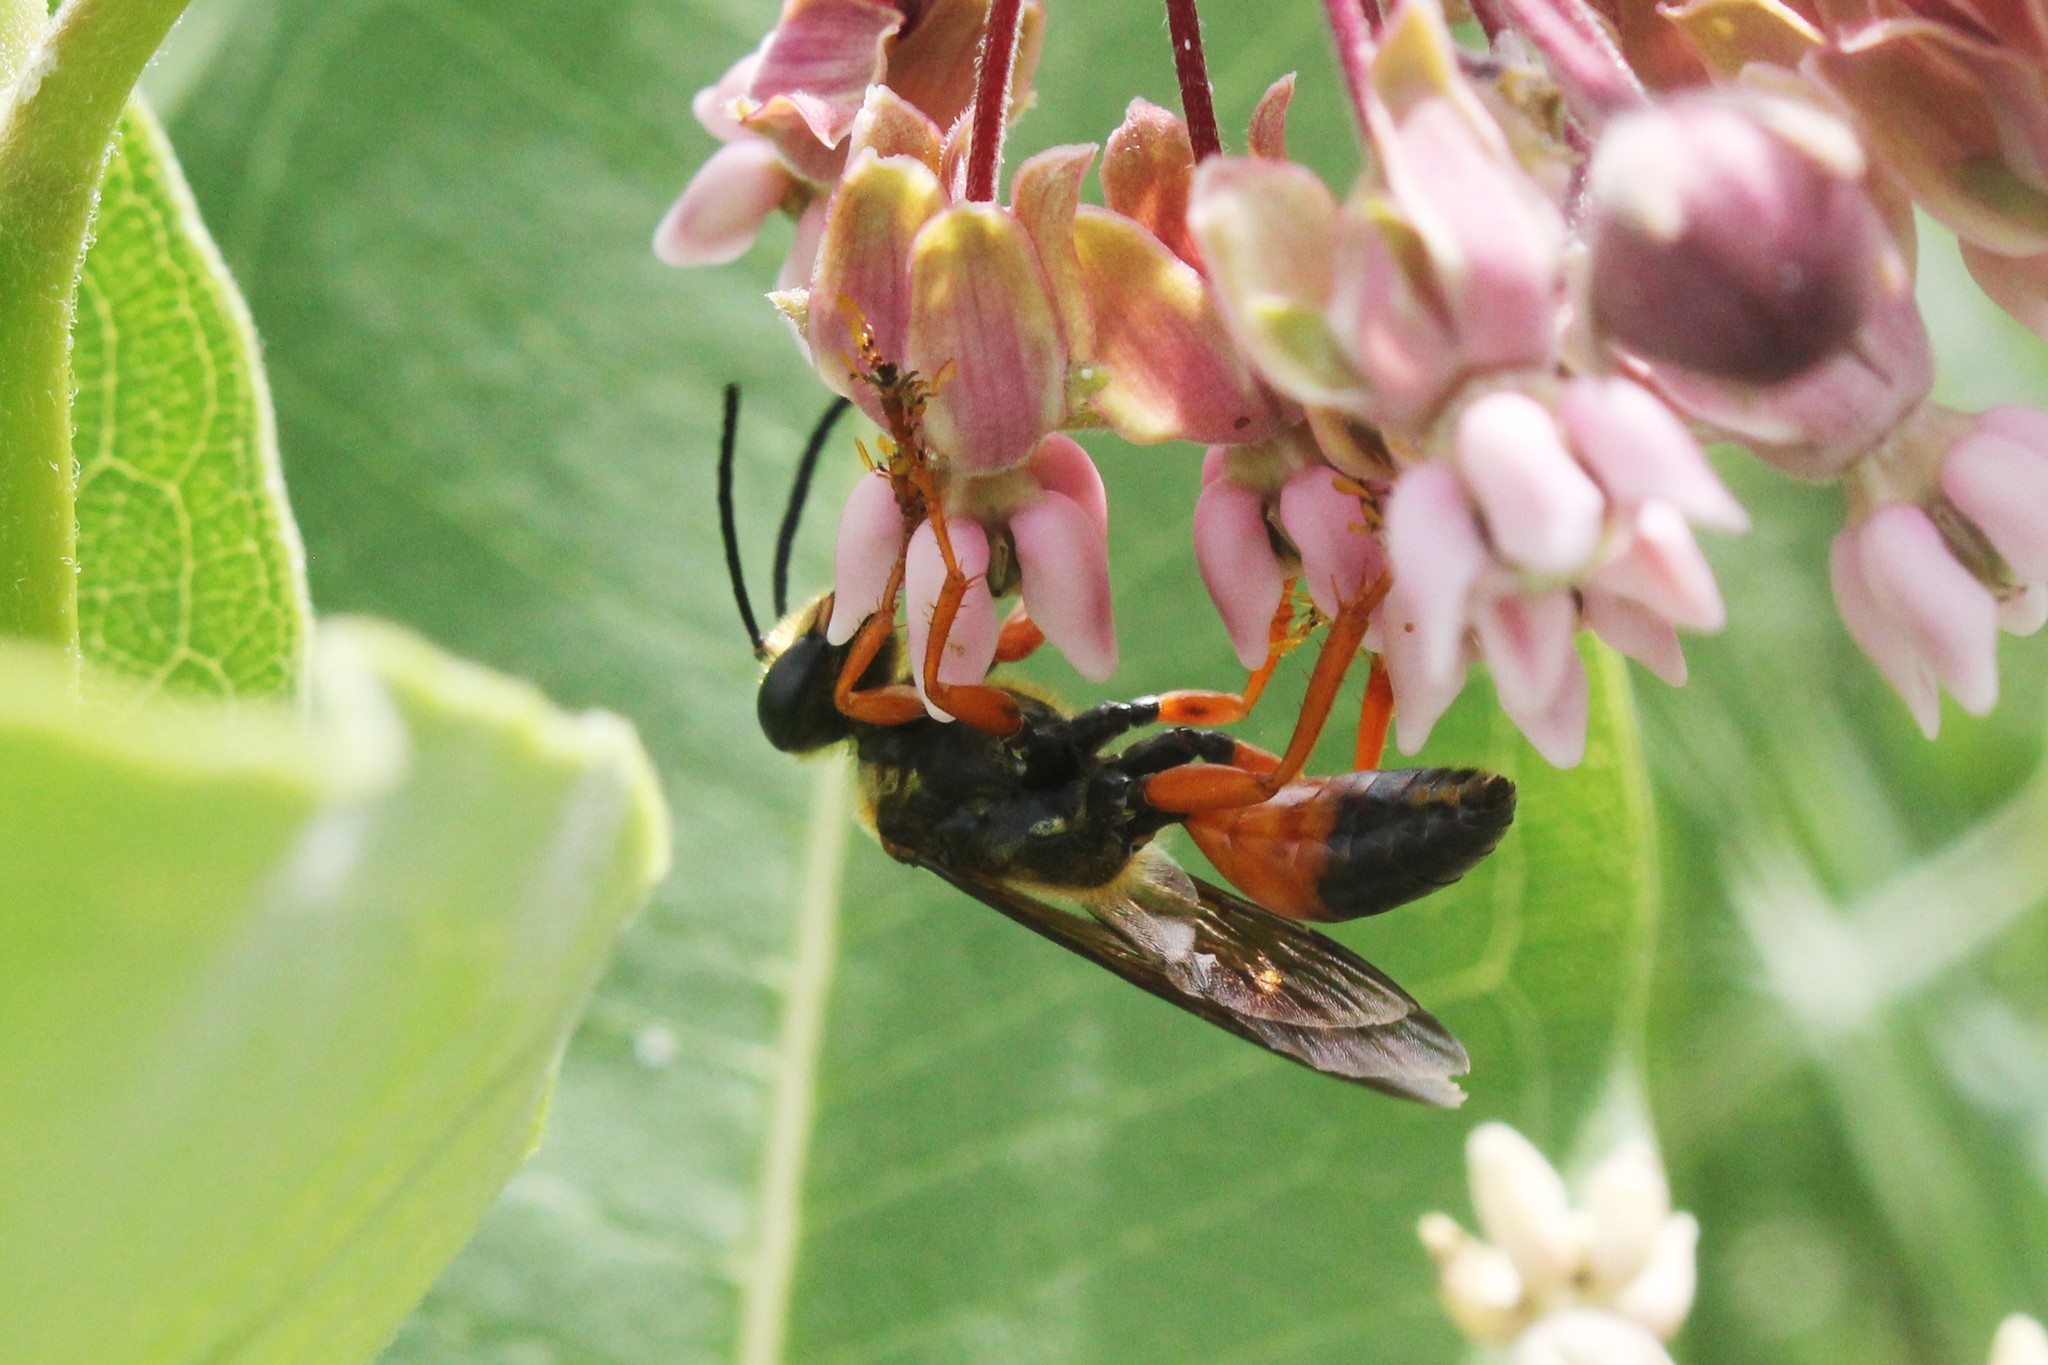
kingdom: Animalia
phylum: Arthropoda
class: Insecta
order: Hymenoptera
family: Sphecidae
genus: Sphex
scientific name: Sphex ichneumoneus
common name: Great golden digger wasp
